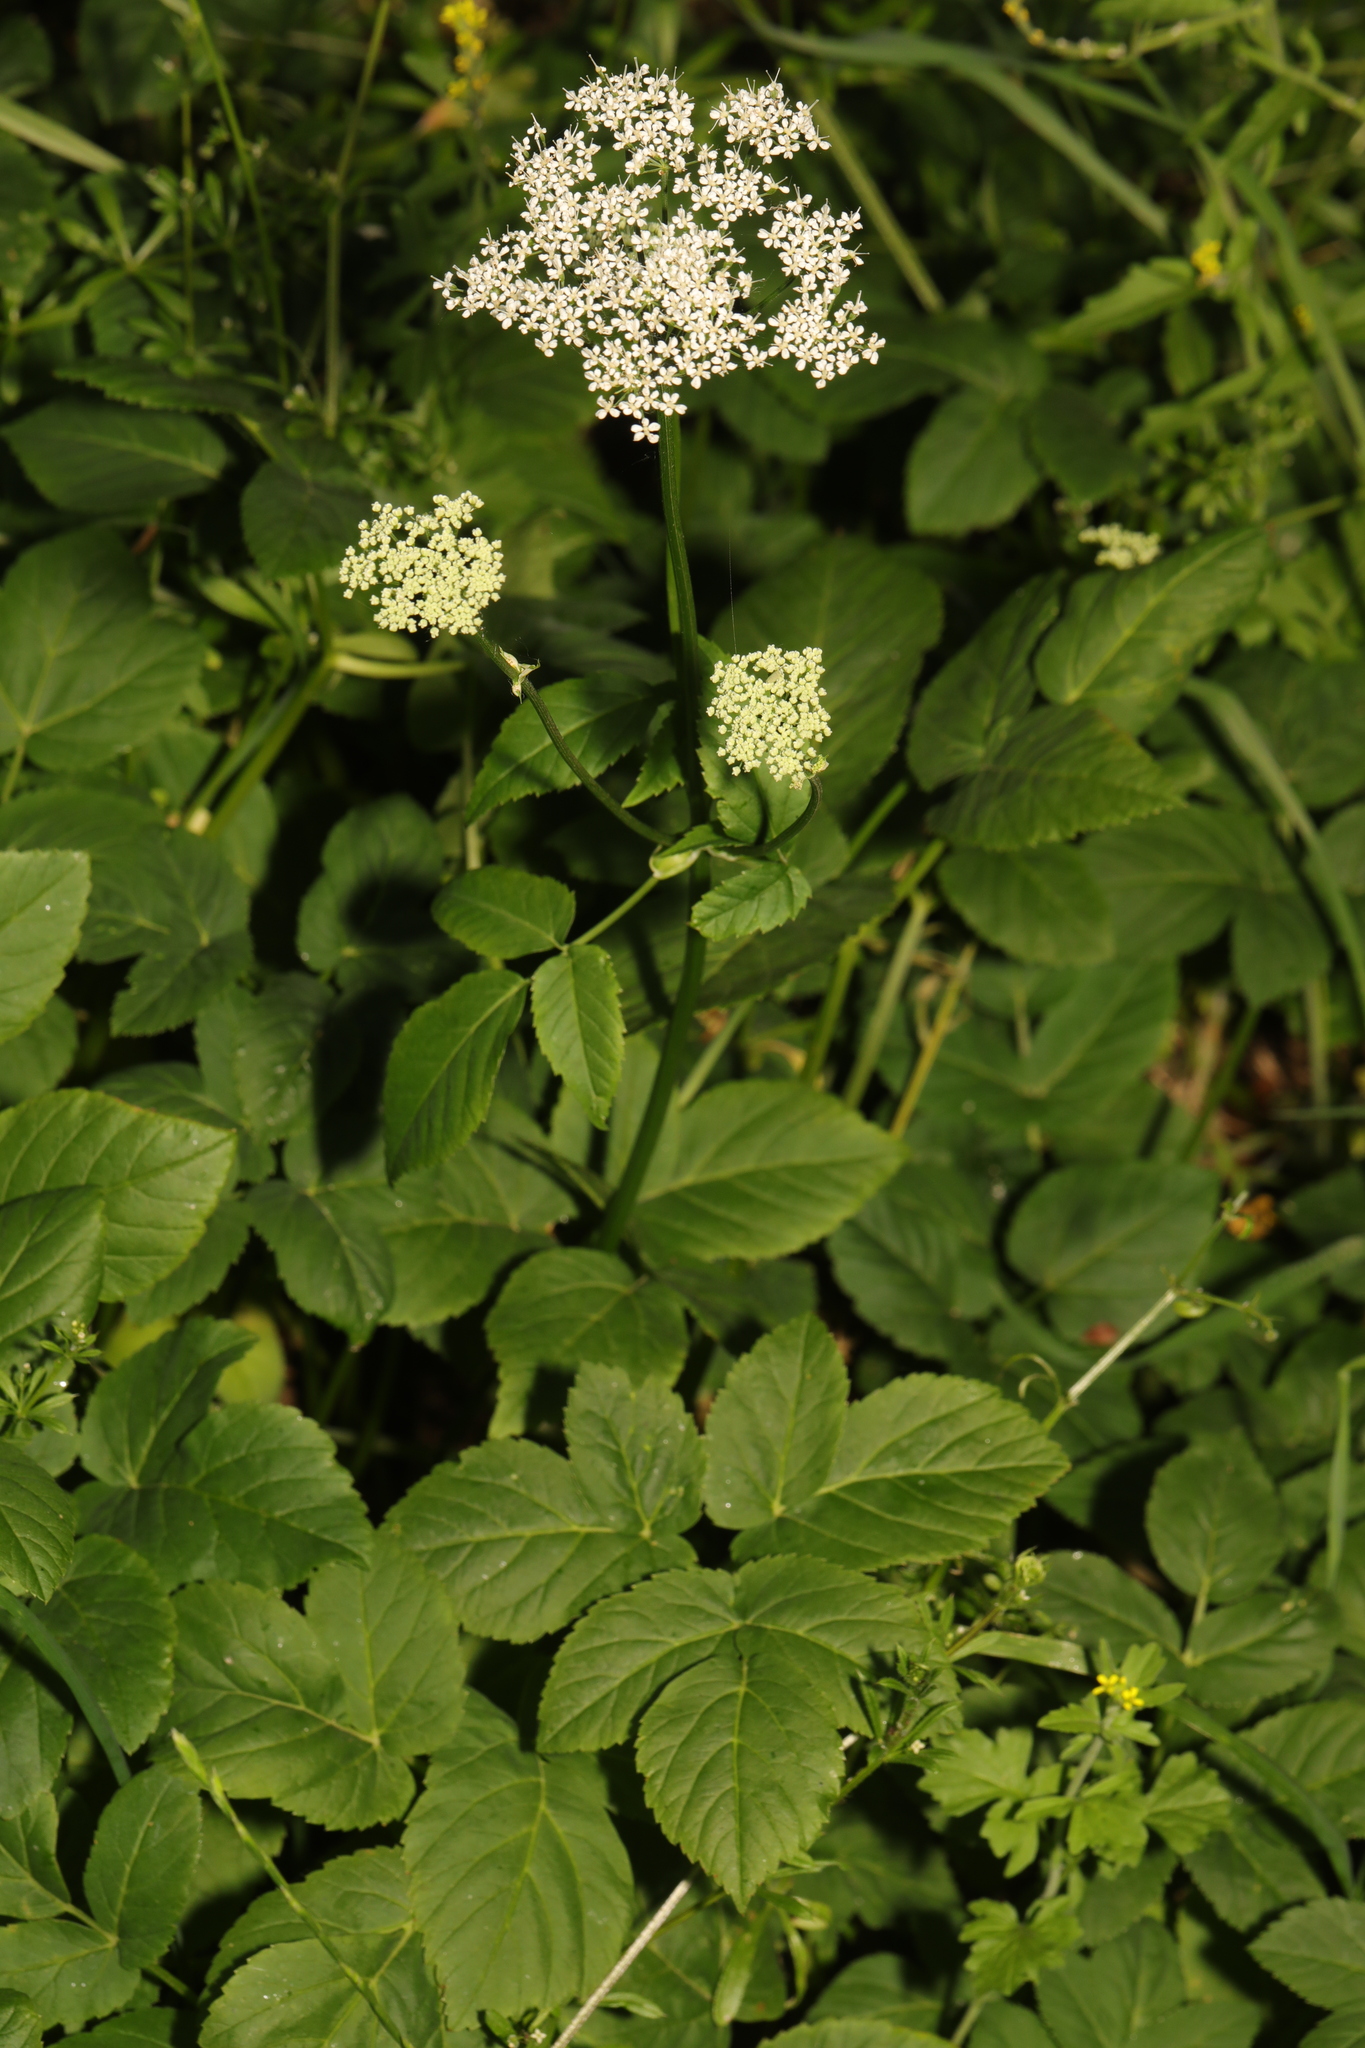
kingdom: Plantae
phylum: Tracheophyta
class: Magnoliopsida
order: Apiales
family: Apiaceae
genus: Aegopodium
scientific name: Aegopodium podagraria
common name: Ground-elder
